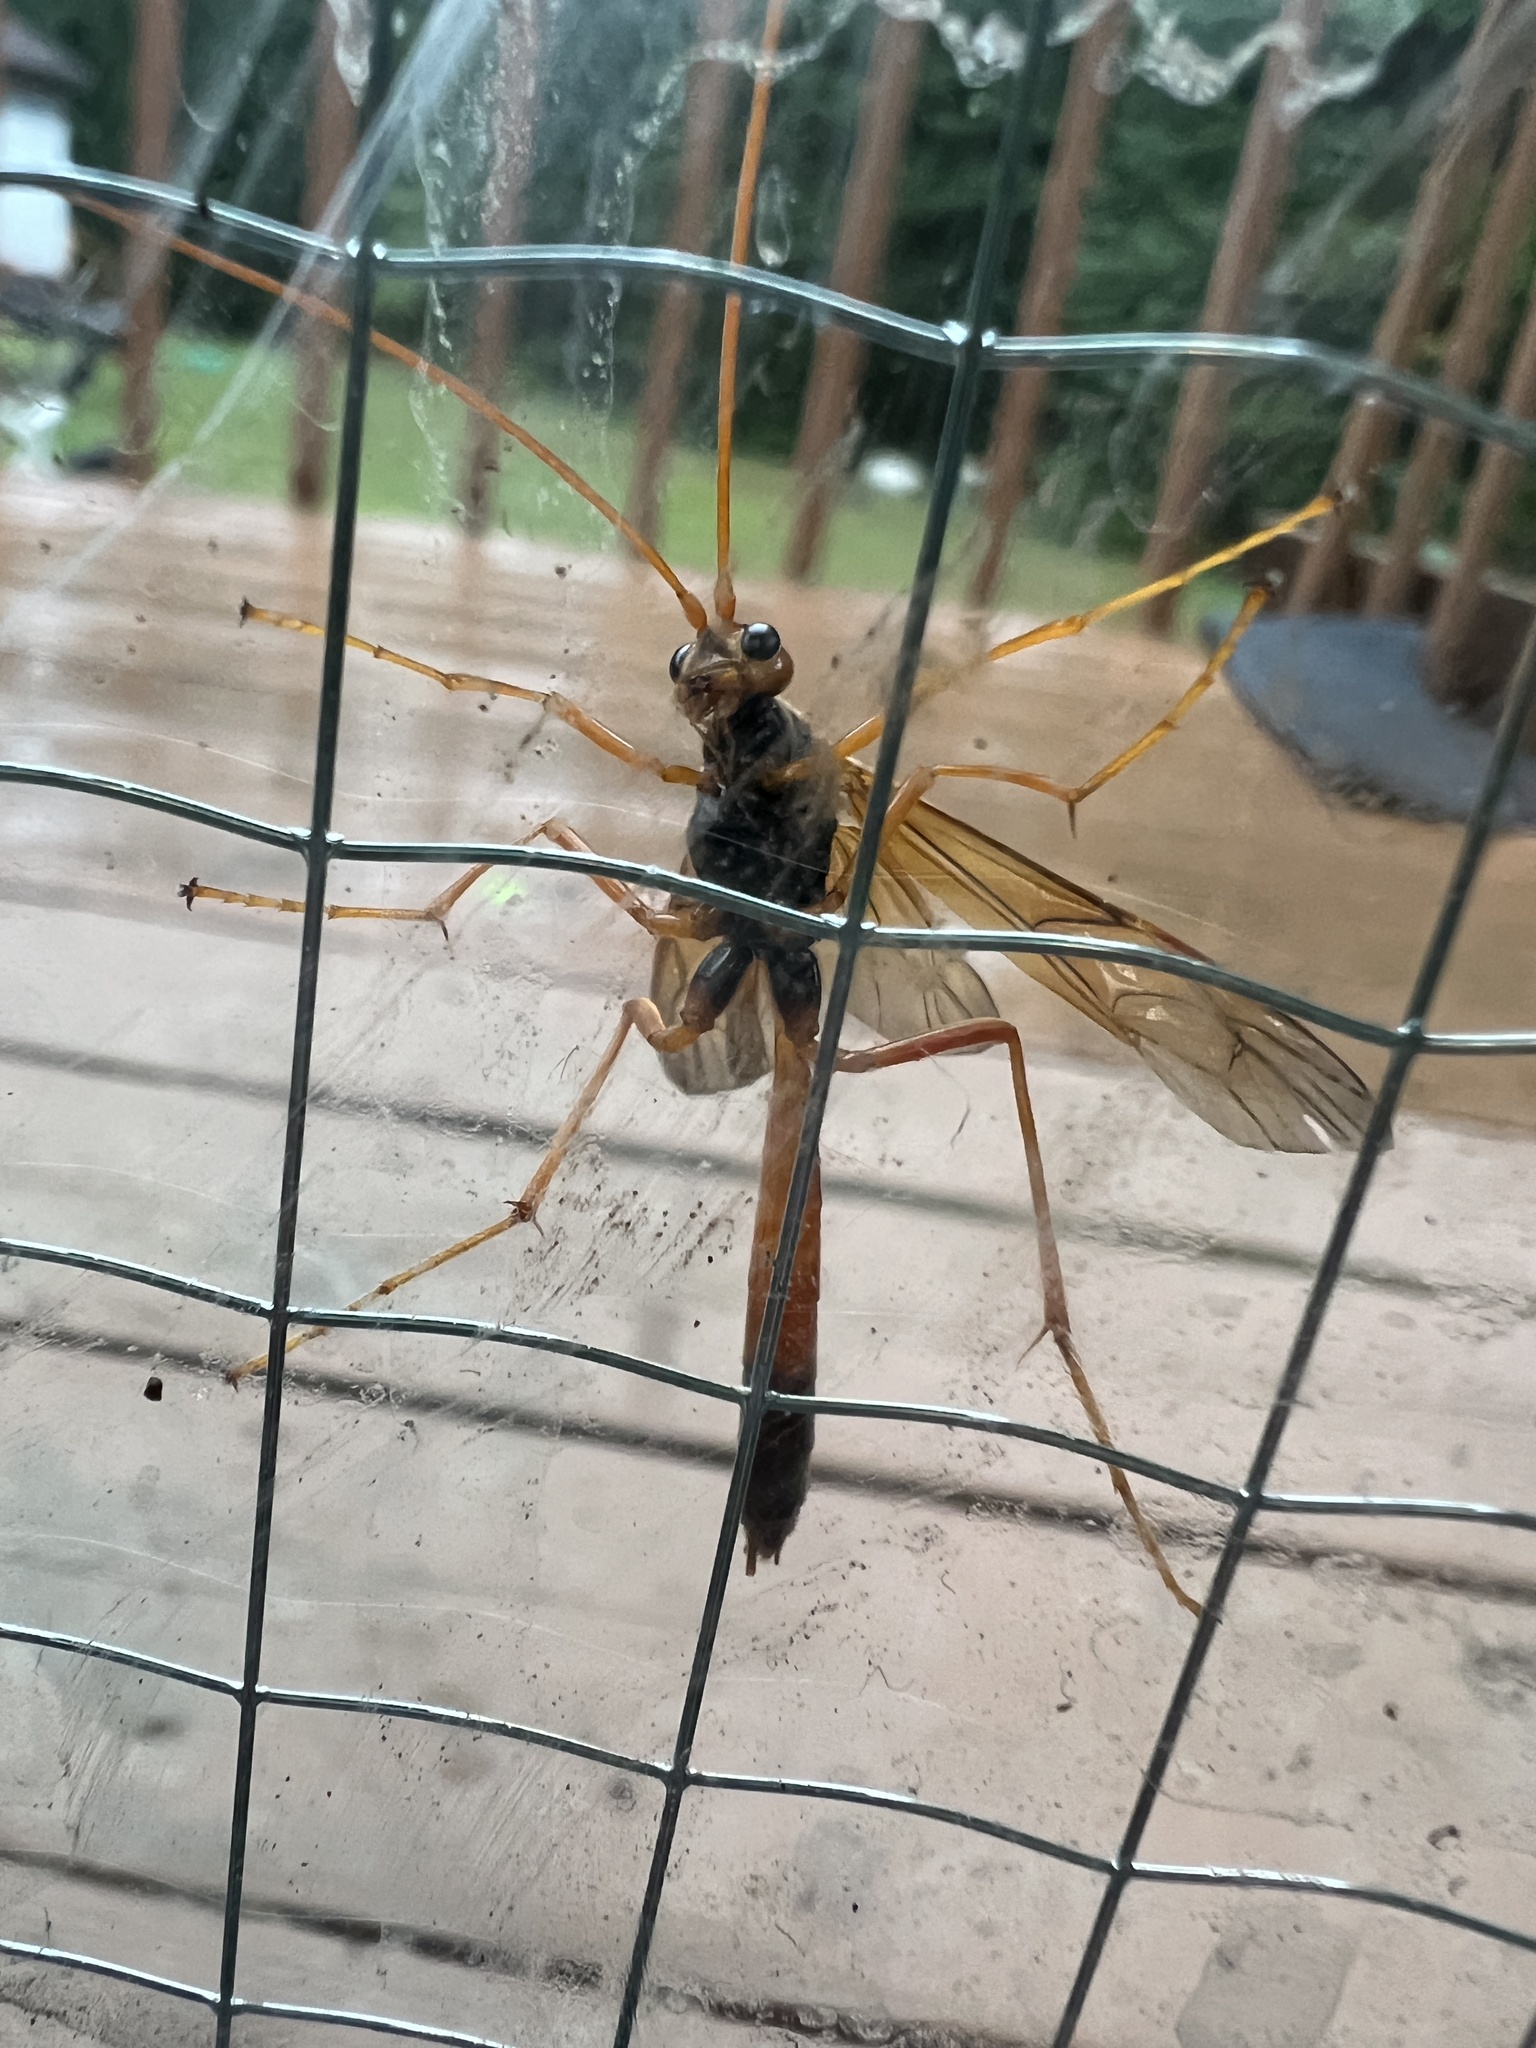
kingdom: Animalia
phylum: Arthropoda
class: Insecta
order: Hymenoptera
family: Ichneumonidae
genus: Opheltes
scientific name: Opheltes glaucopterus
